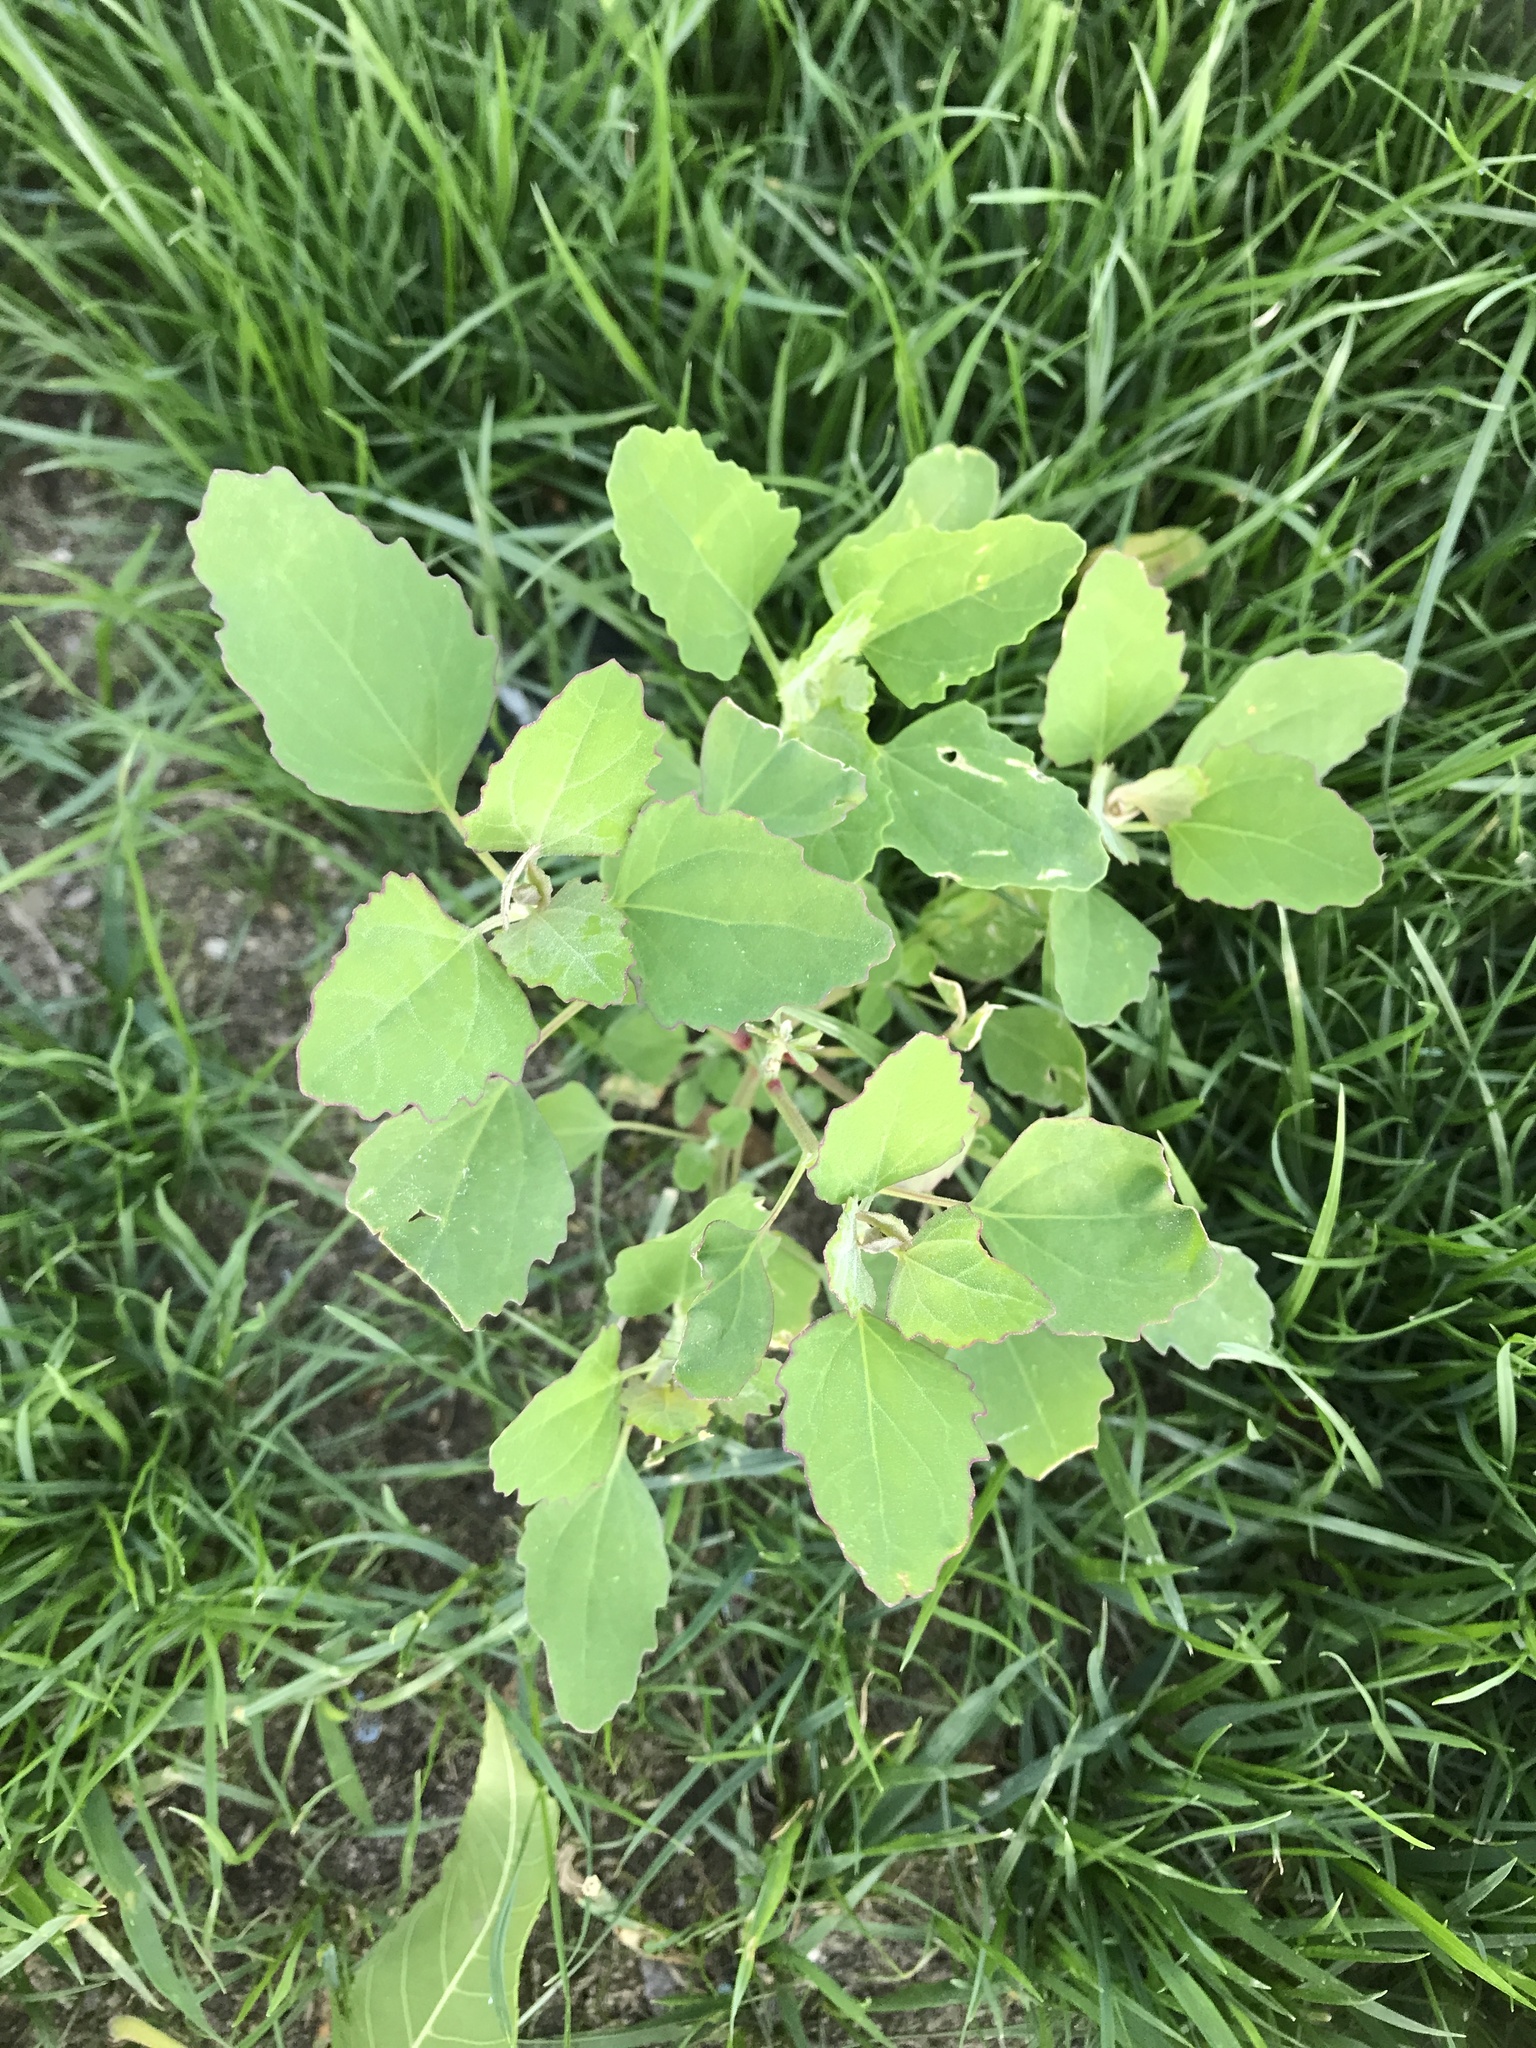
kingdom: Plantae
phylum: Tracheophyta
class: Magnoliopsida
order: Caryophyllales
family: Amaranthaceae
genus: Chenopodium
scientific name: Chenopodium album
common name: Fat-hen
